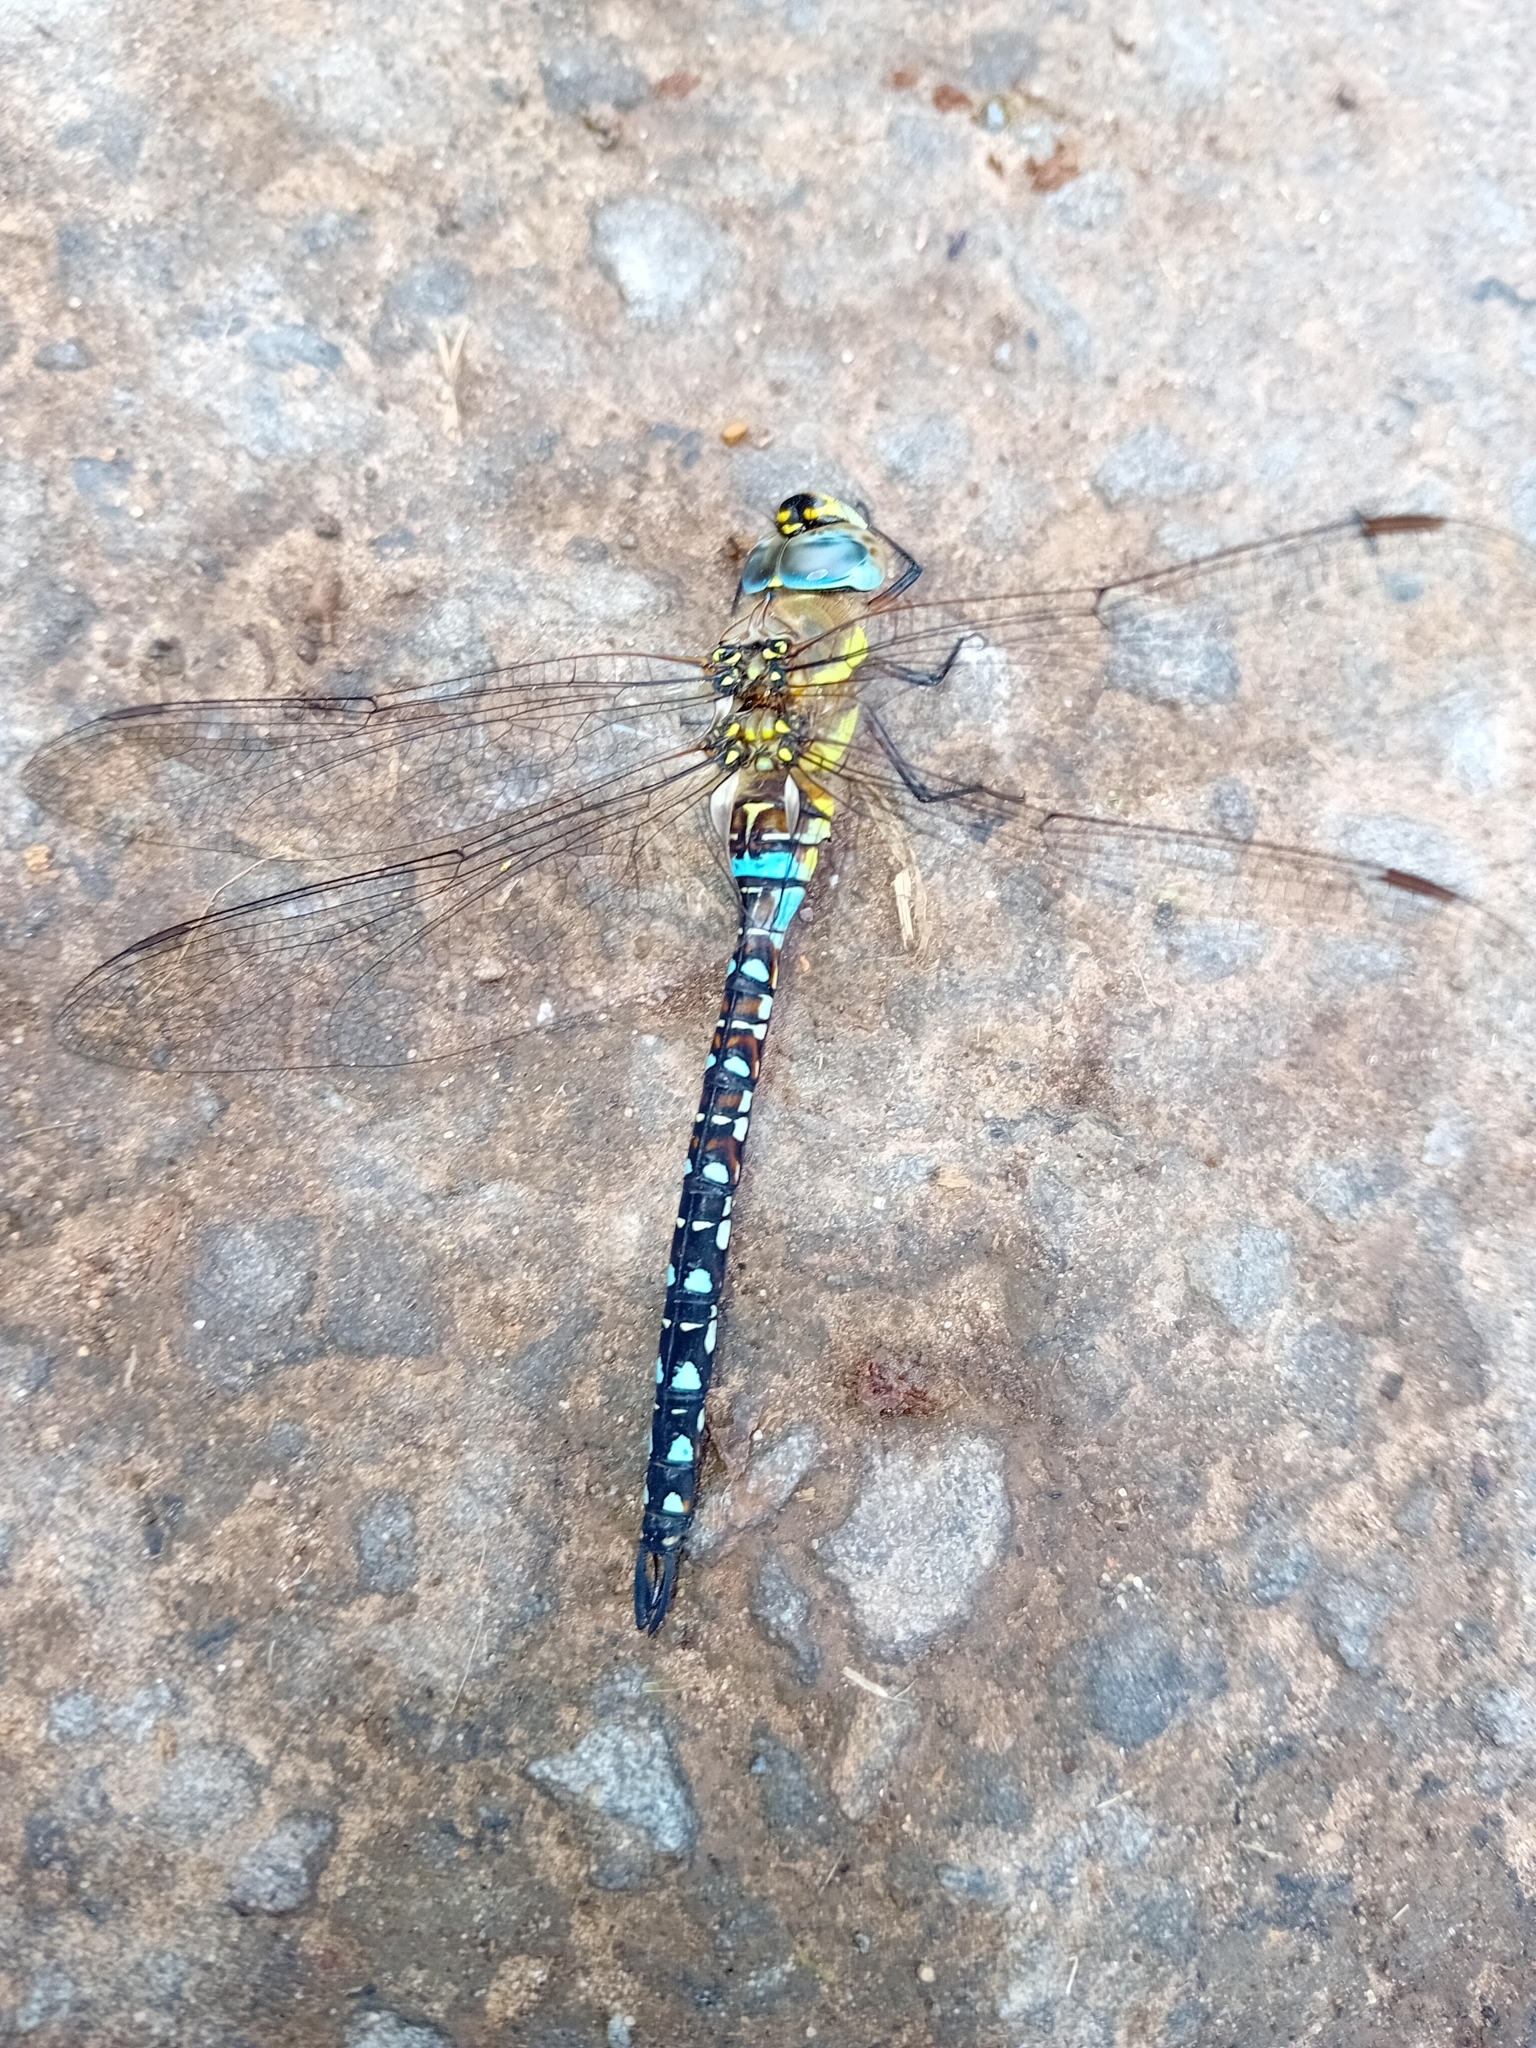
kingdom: Animalia
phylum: Arthropoda
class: Insecta
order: Odonata
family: Aeshnidae
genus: Aeshna
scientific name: Aeshna mixta
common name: Migrant hawker
